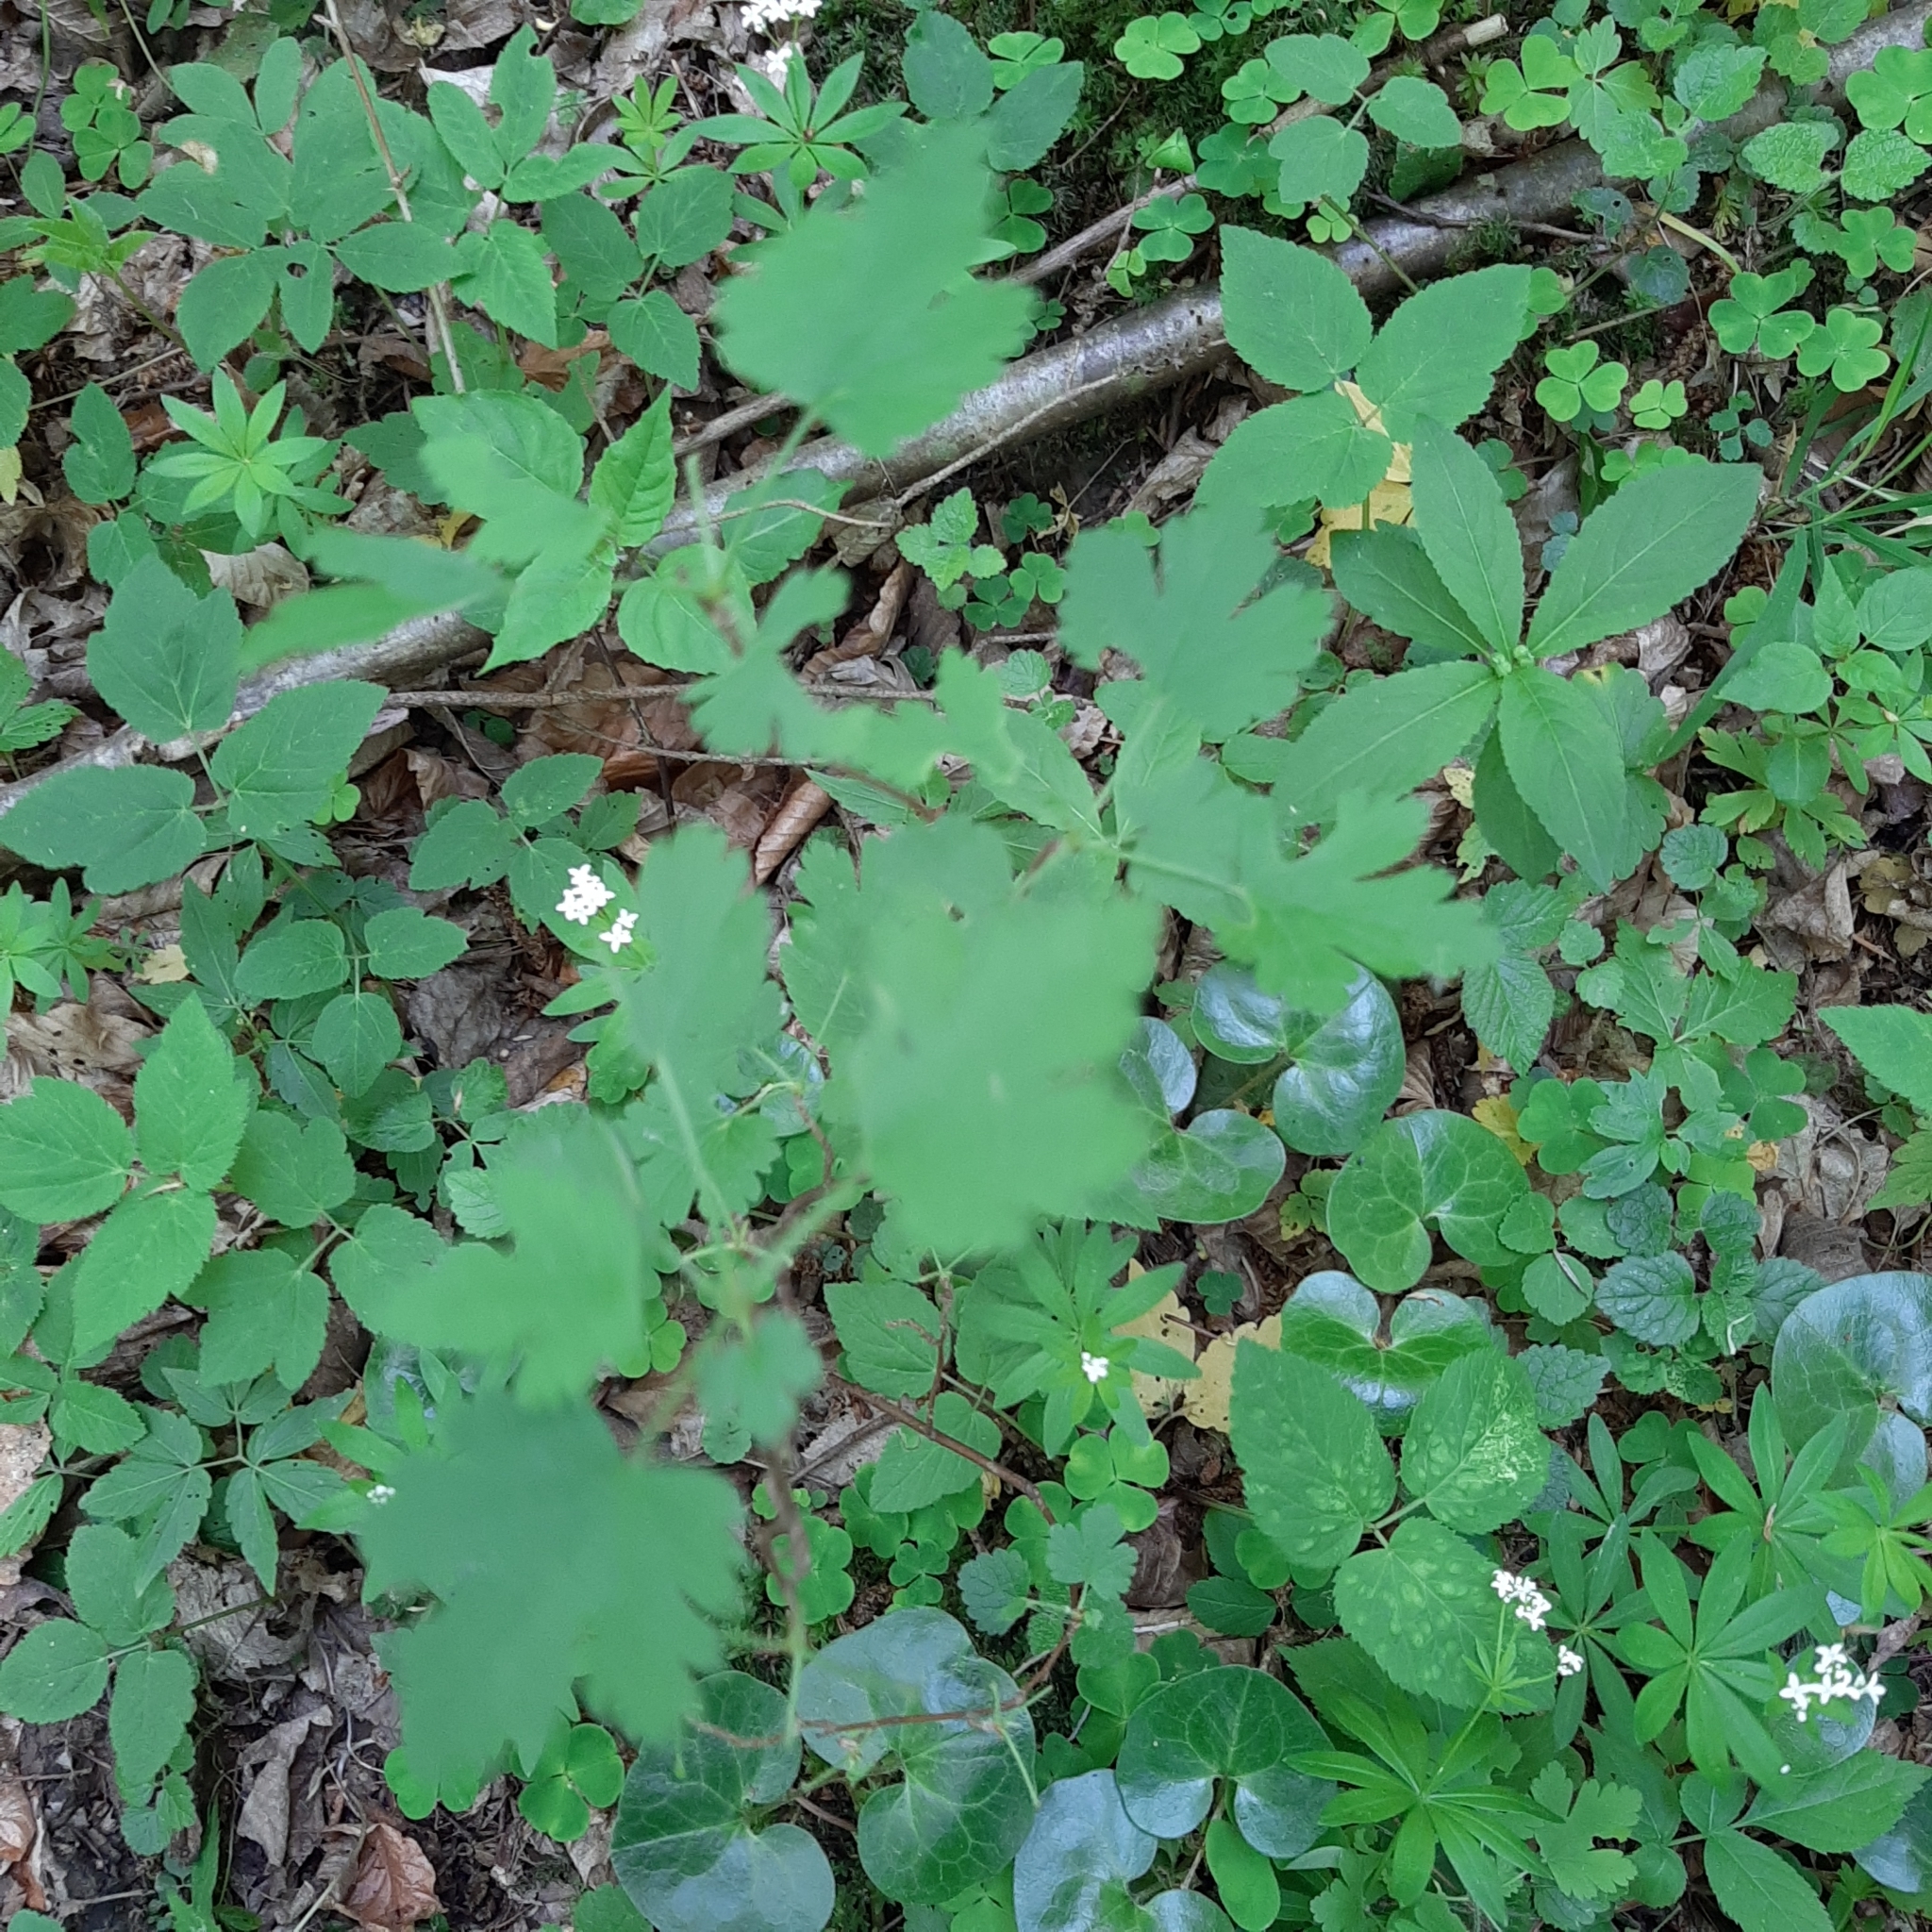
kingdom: Plantae
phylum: Tracheophyta
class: Magnoliopsida
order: Saxifragales
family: Grossulariaceae
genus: Ribes
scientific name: Ribes uva-crispa
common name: Gooseberry
